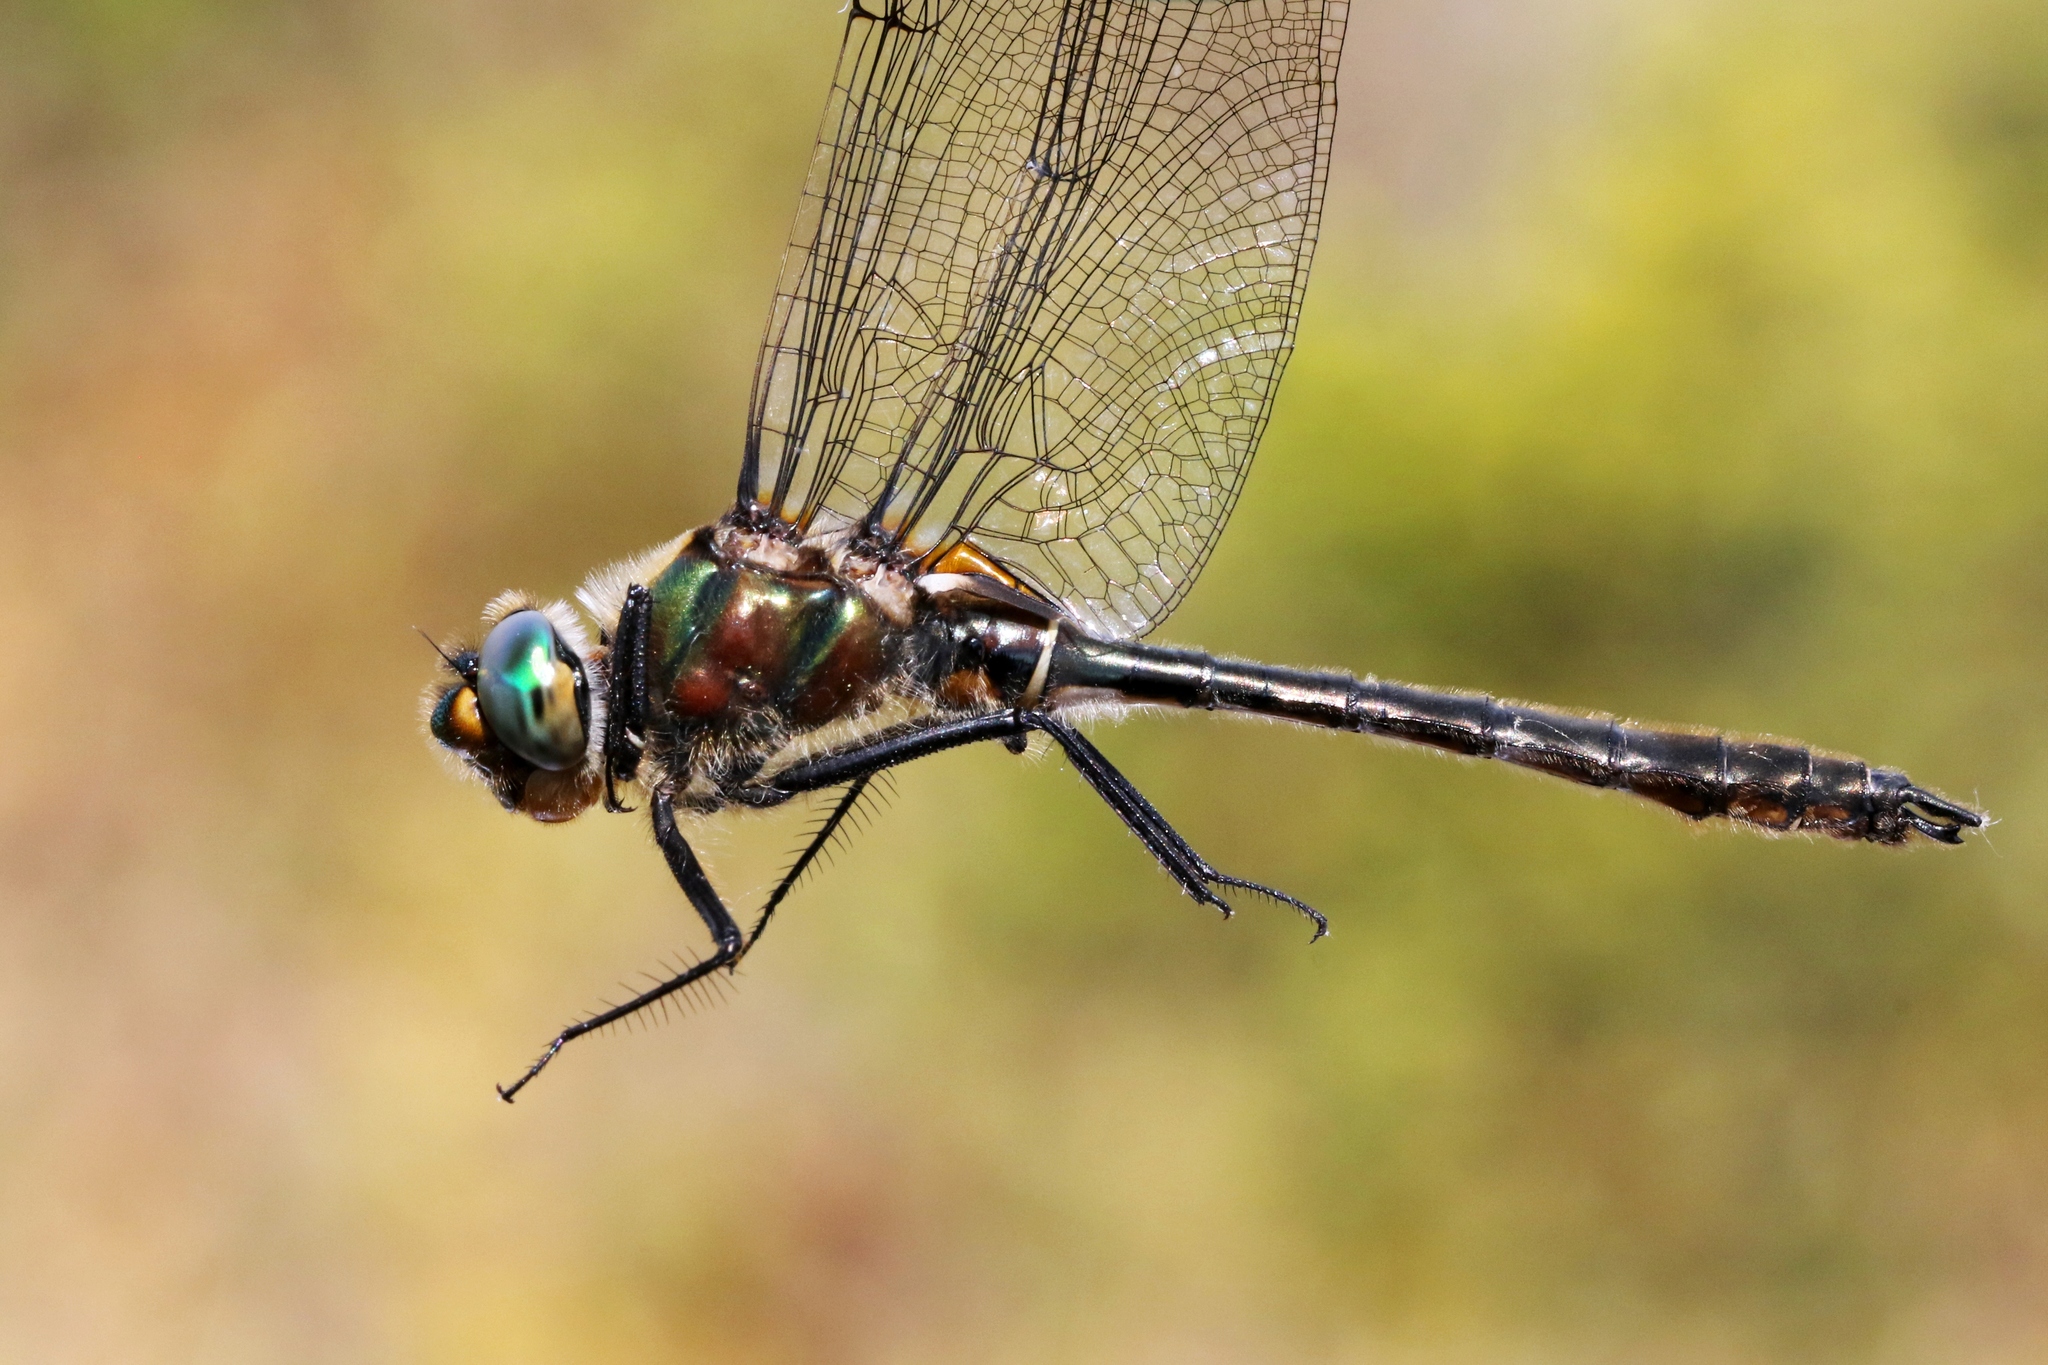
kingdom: Animalia
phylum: Arthropoda
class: Insecta
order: Odonata
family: Corduliidae
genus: Cordulia
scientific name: Cordulia shurtleffii
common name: American emerald
